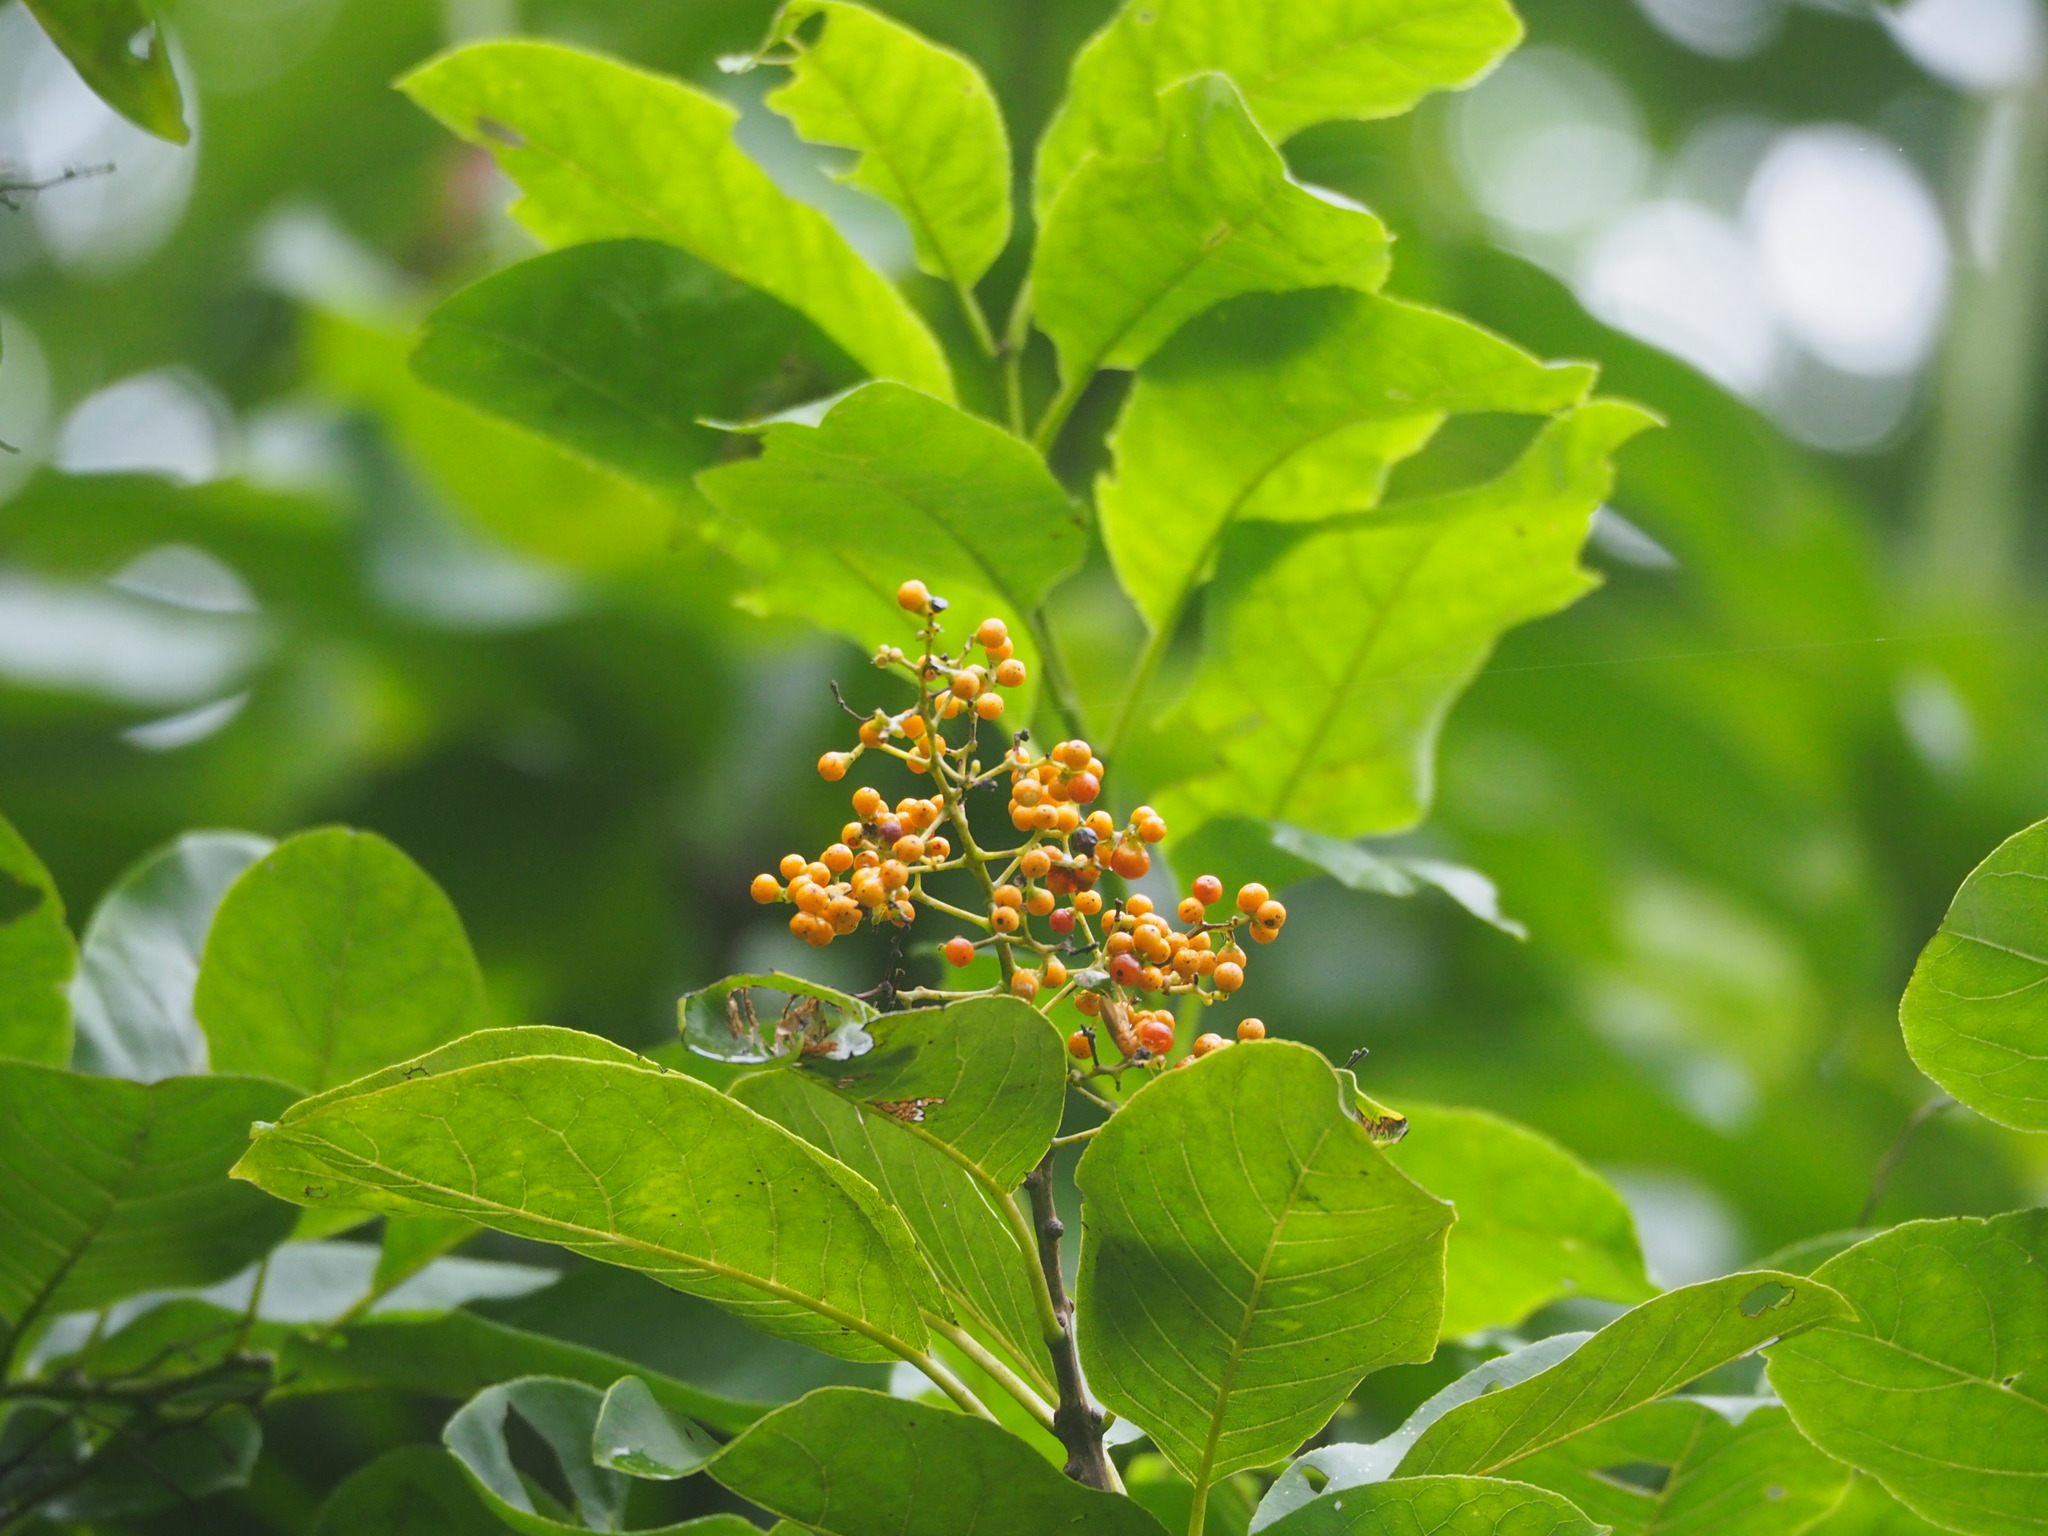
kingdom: Plantae
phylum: Tracheophyta
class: Magnoliopsida
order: Boraginales
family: Ehretiaceae
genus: Ehretia
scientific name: Ehretia acuminata
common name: Kodo wood
